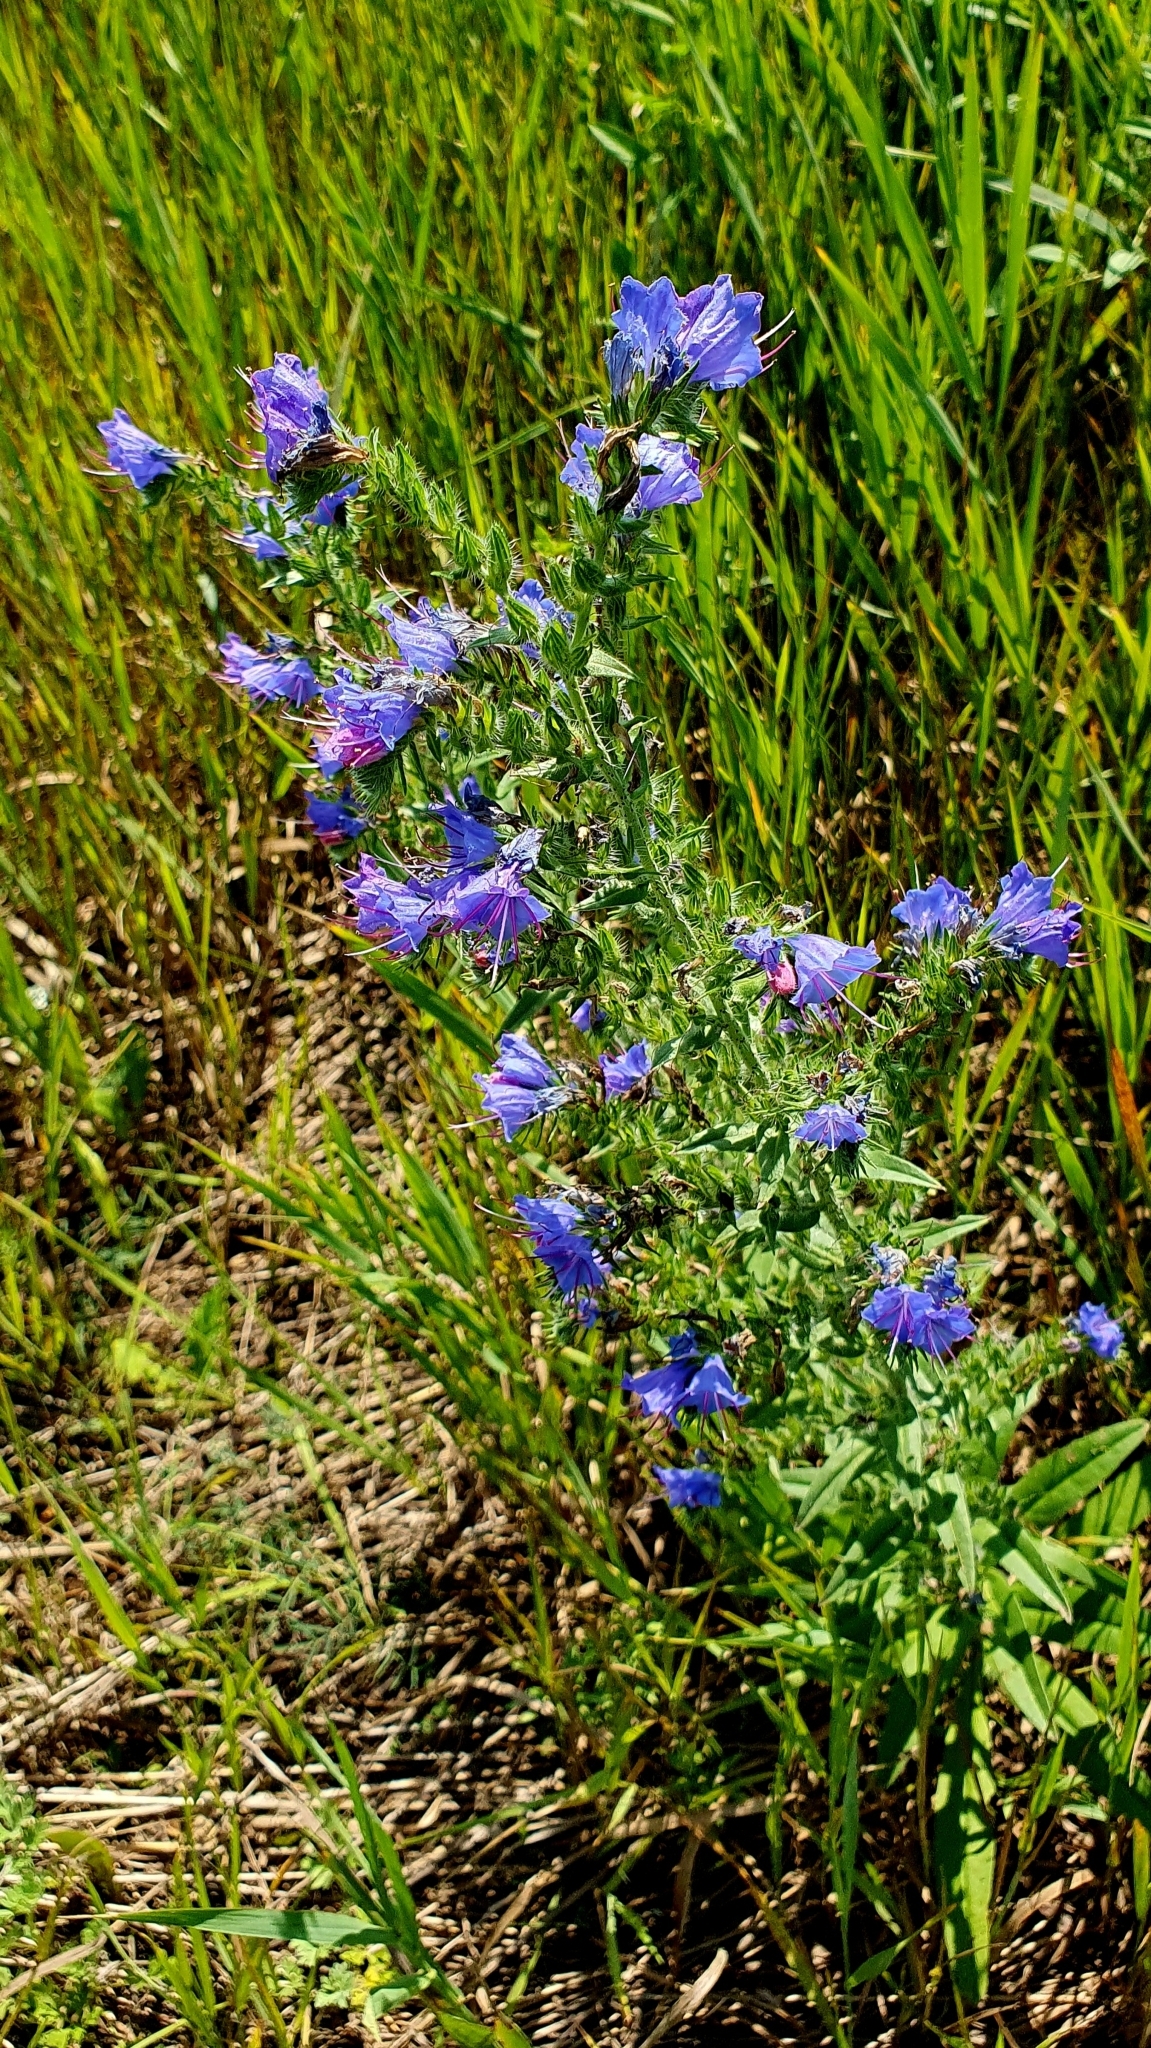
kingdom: Plantae
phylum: Tracheophyta
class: Magnoliopsida
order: Boraginales
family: Boraginaceae
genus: Echium
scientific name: Echium vulgare
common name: Common viper's bugloss
